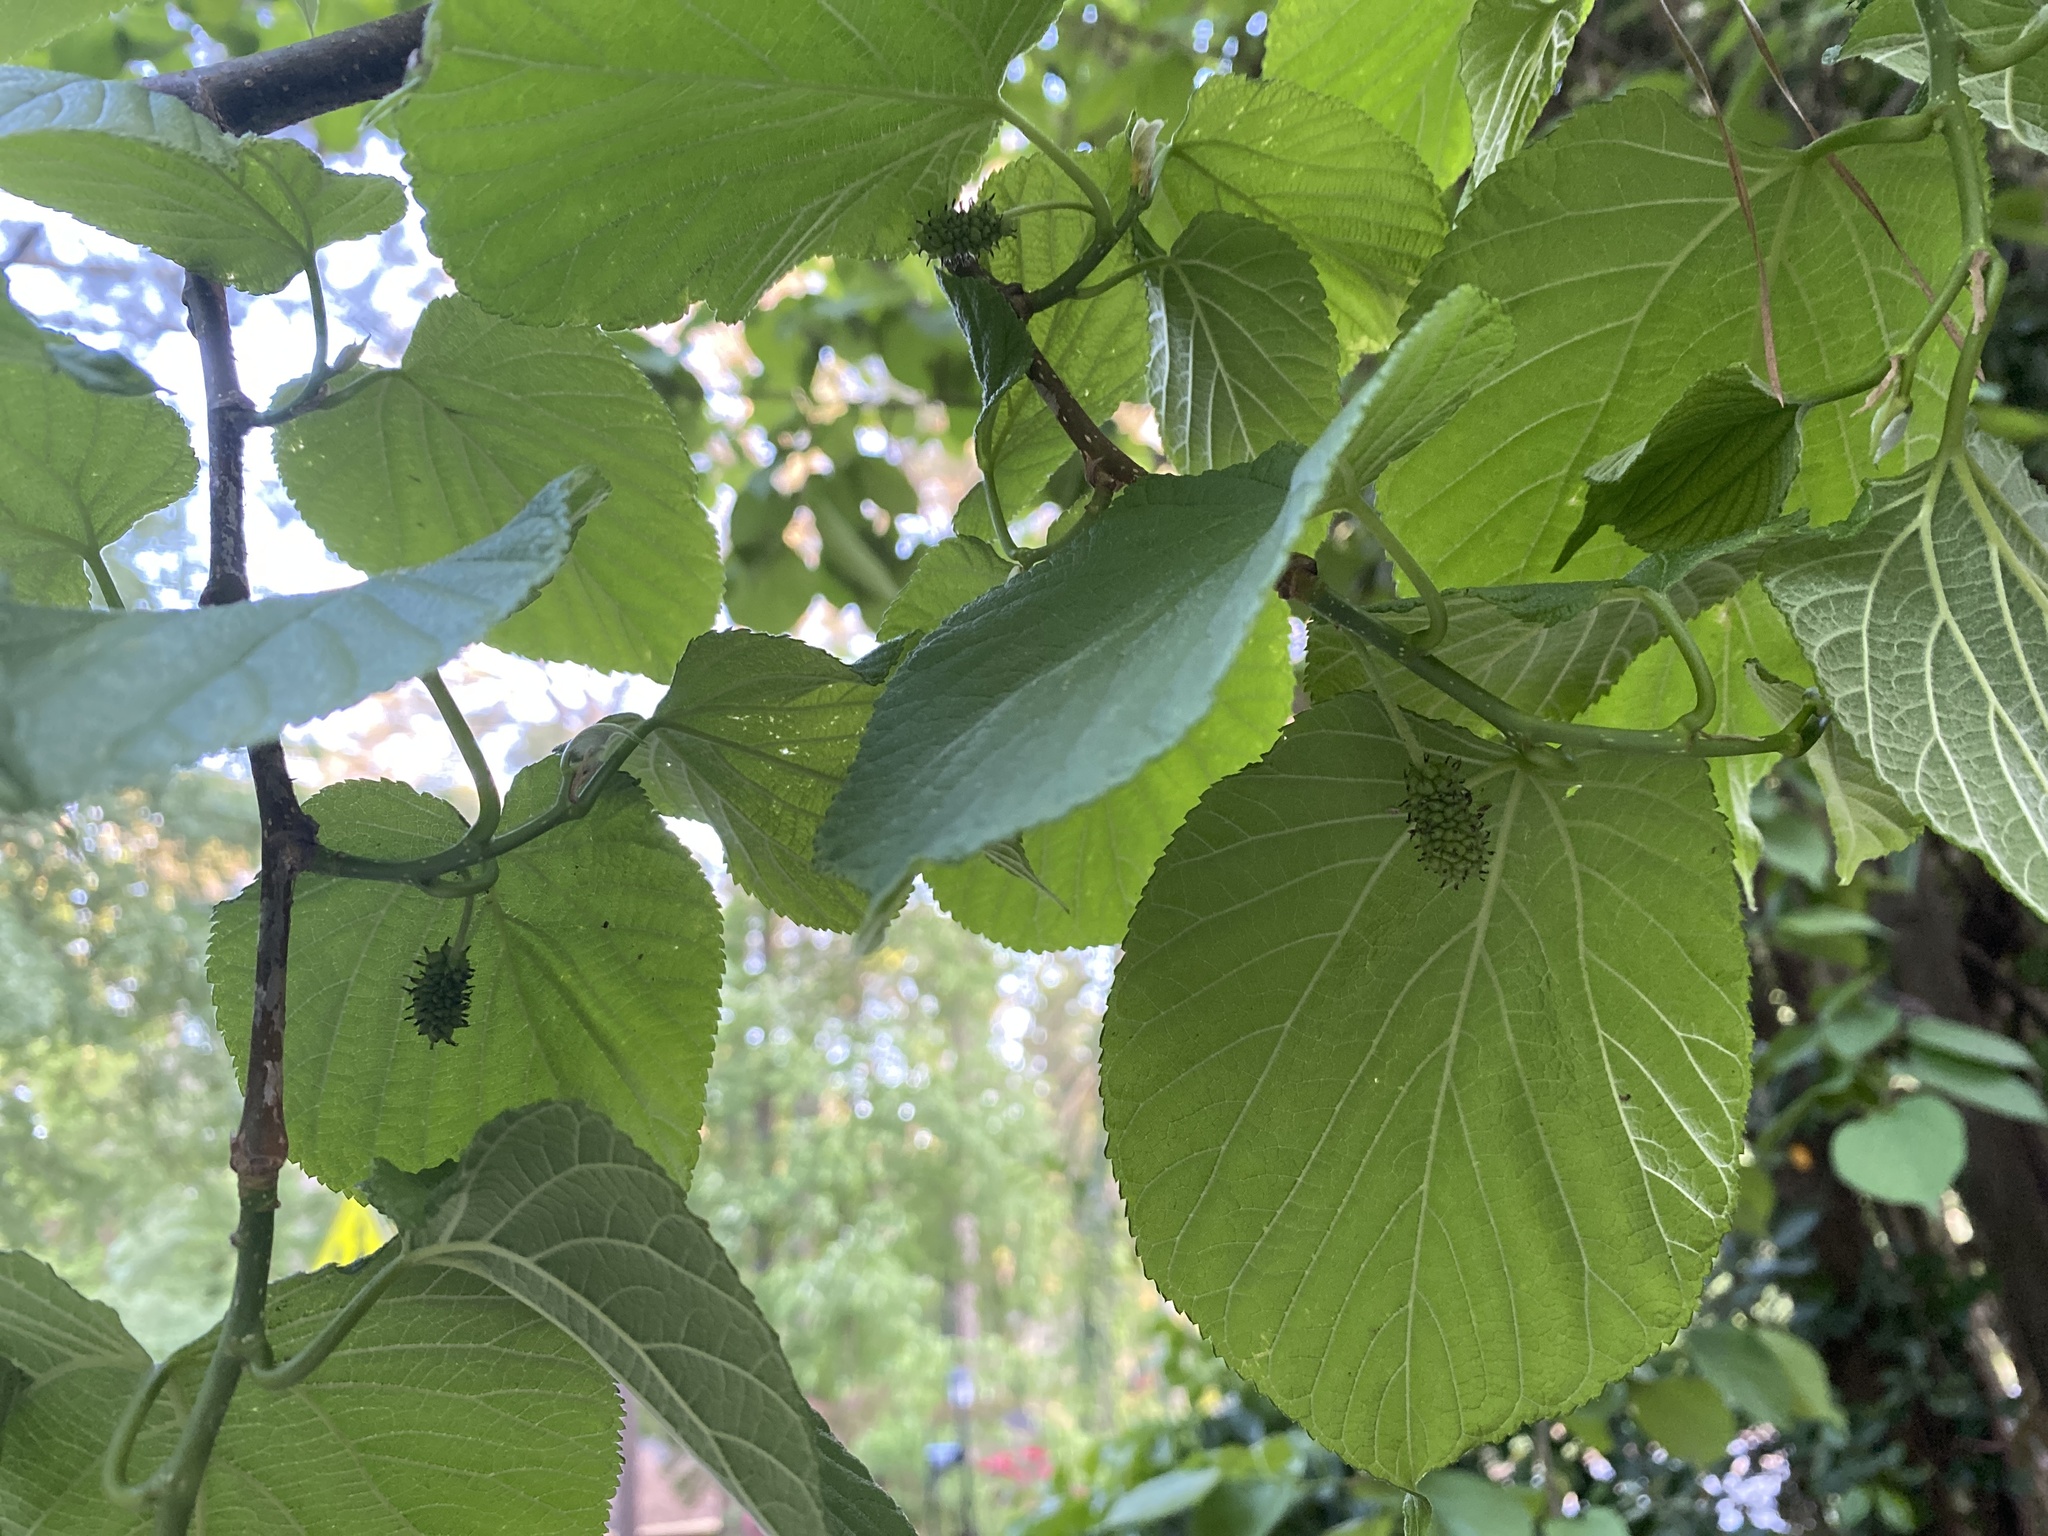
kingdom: Plantae
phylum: Tracheophyta
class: Magnoliopsida
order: Rosales
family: Moraceae
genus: Morus
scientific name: Morus rubra
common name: Red mulberry
